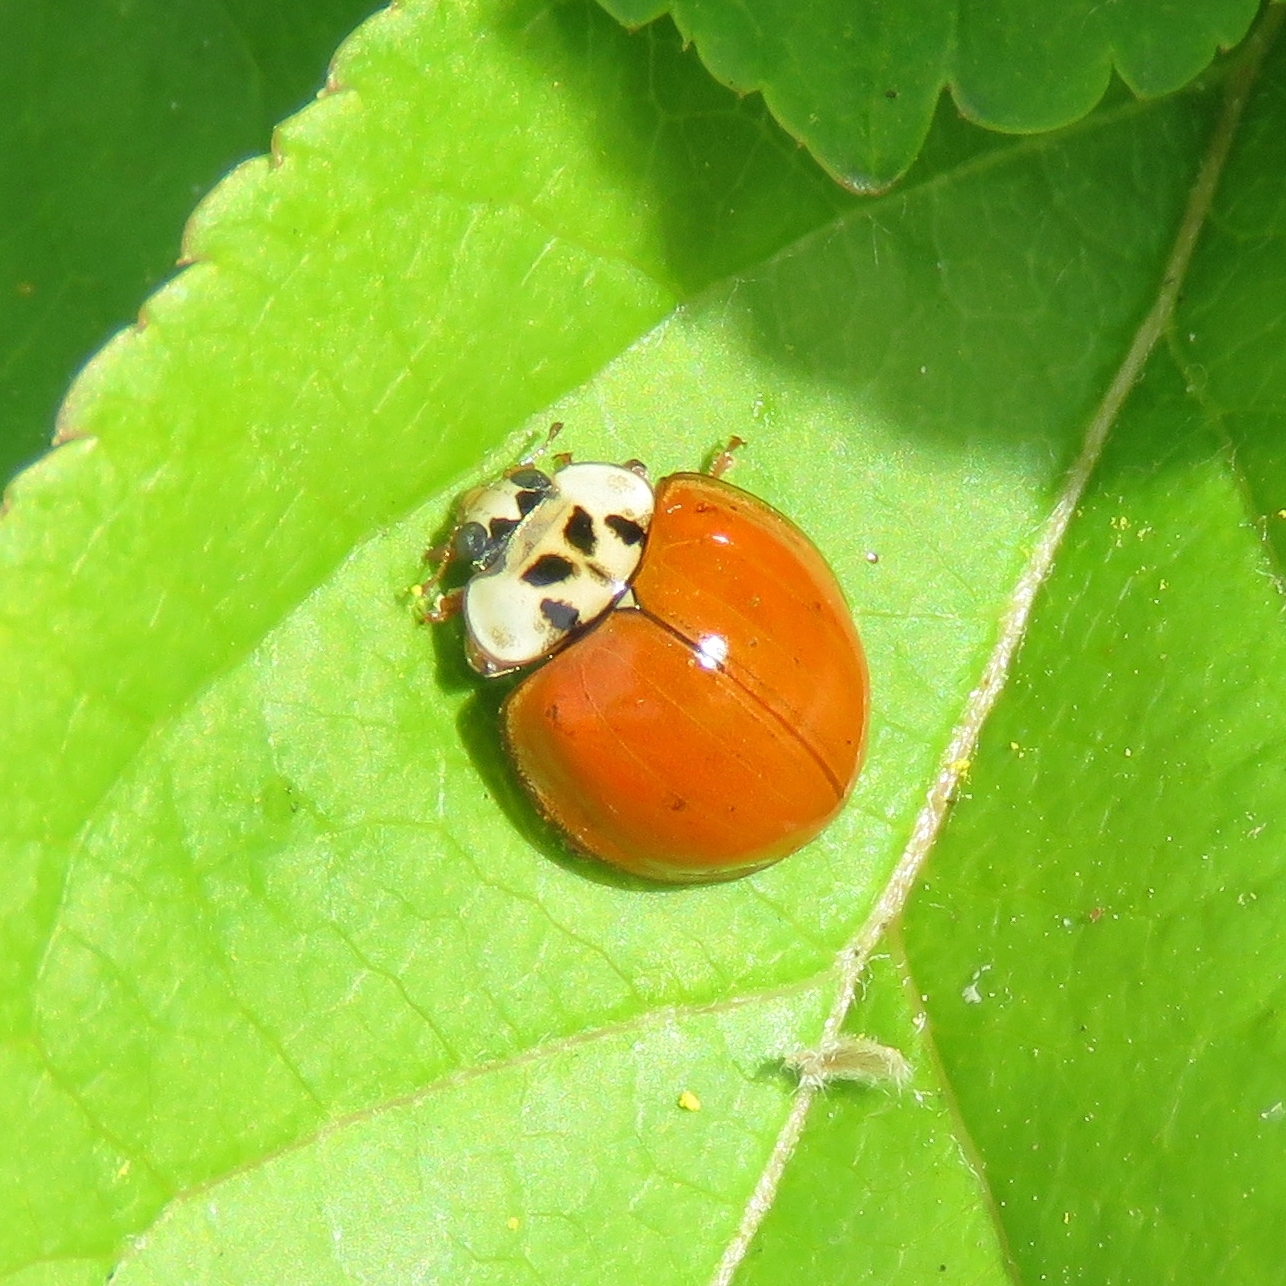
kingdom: Animalia
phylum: Arthropoda
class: Insecta
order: Coleoptera
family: Coccinellidae
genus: Harmonia
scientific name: Harmonia axyridis
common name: Harlequin ladybird
